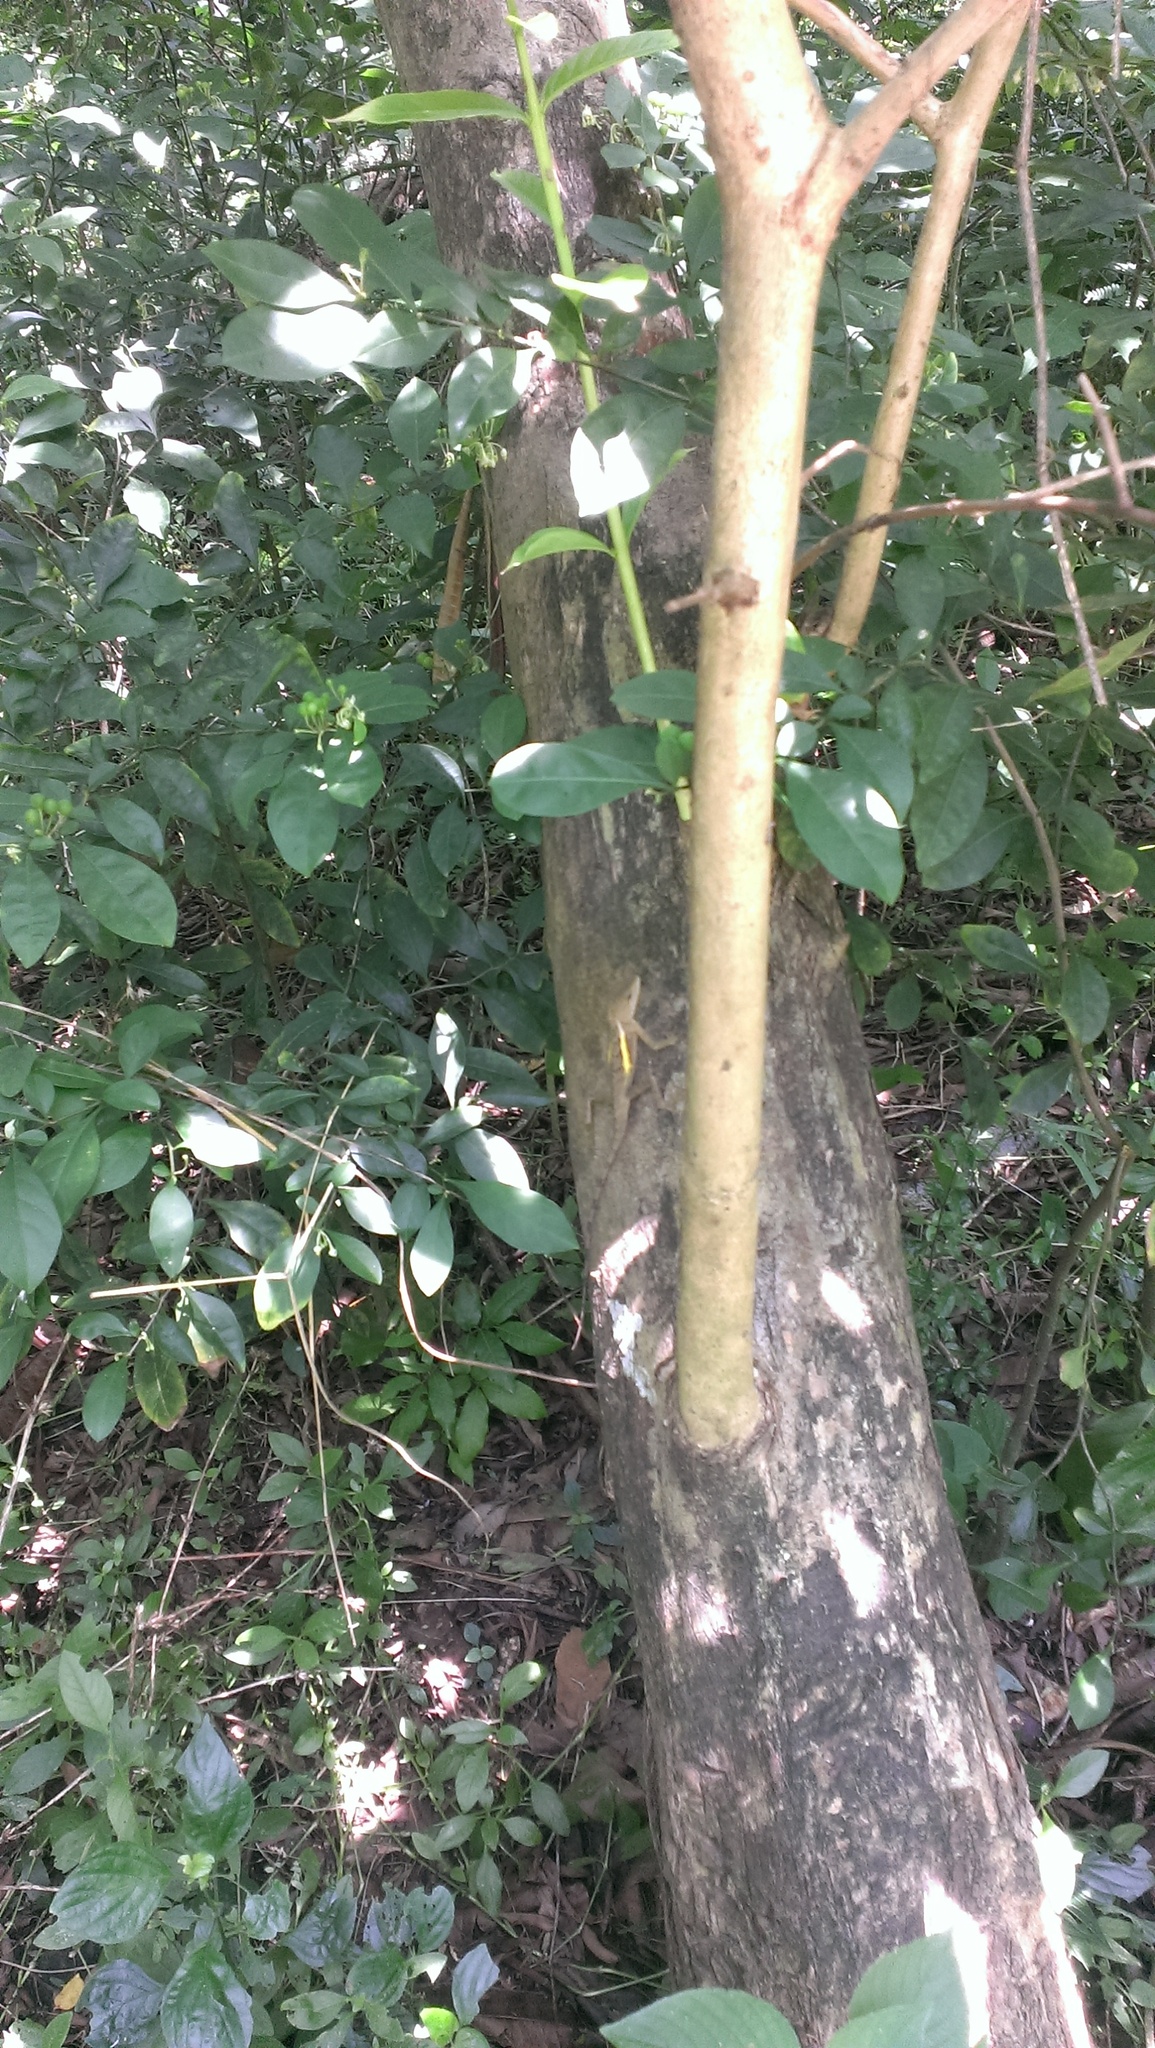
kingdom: Animalia
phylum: Chordata
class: Squamata
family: Agamidae
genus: Diploderma
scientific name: Diploderma swinhonis
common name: Taiwan japalure
